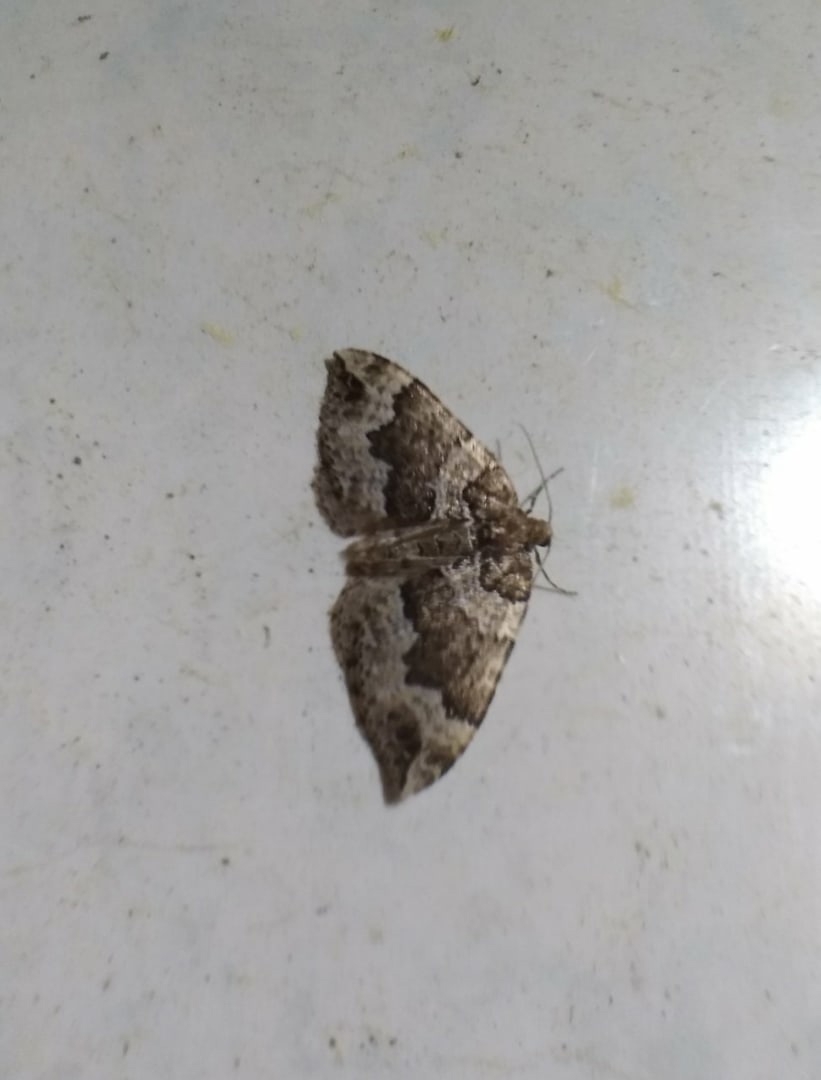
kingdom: Animalia
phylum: Arthropoda
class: Insecta
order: Lepidoptera
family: Geometridae
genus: Lampropteryx
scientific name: Lampropteryx suffumata
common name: Water carpet
